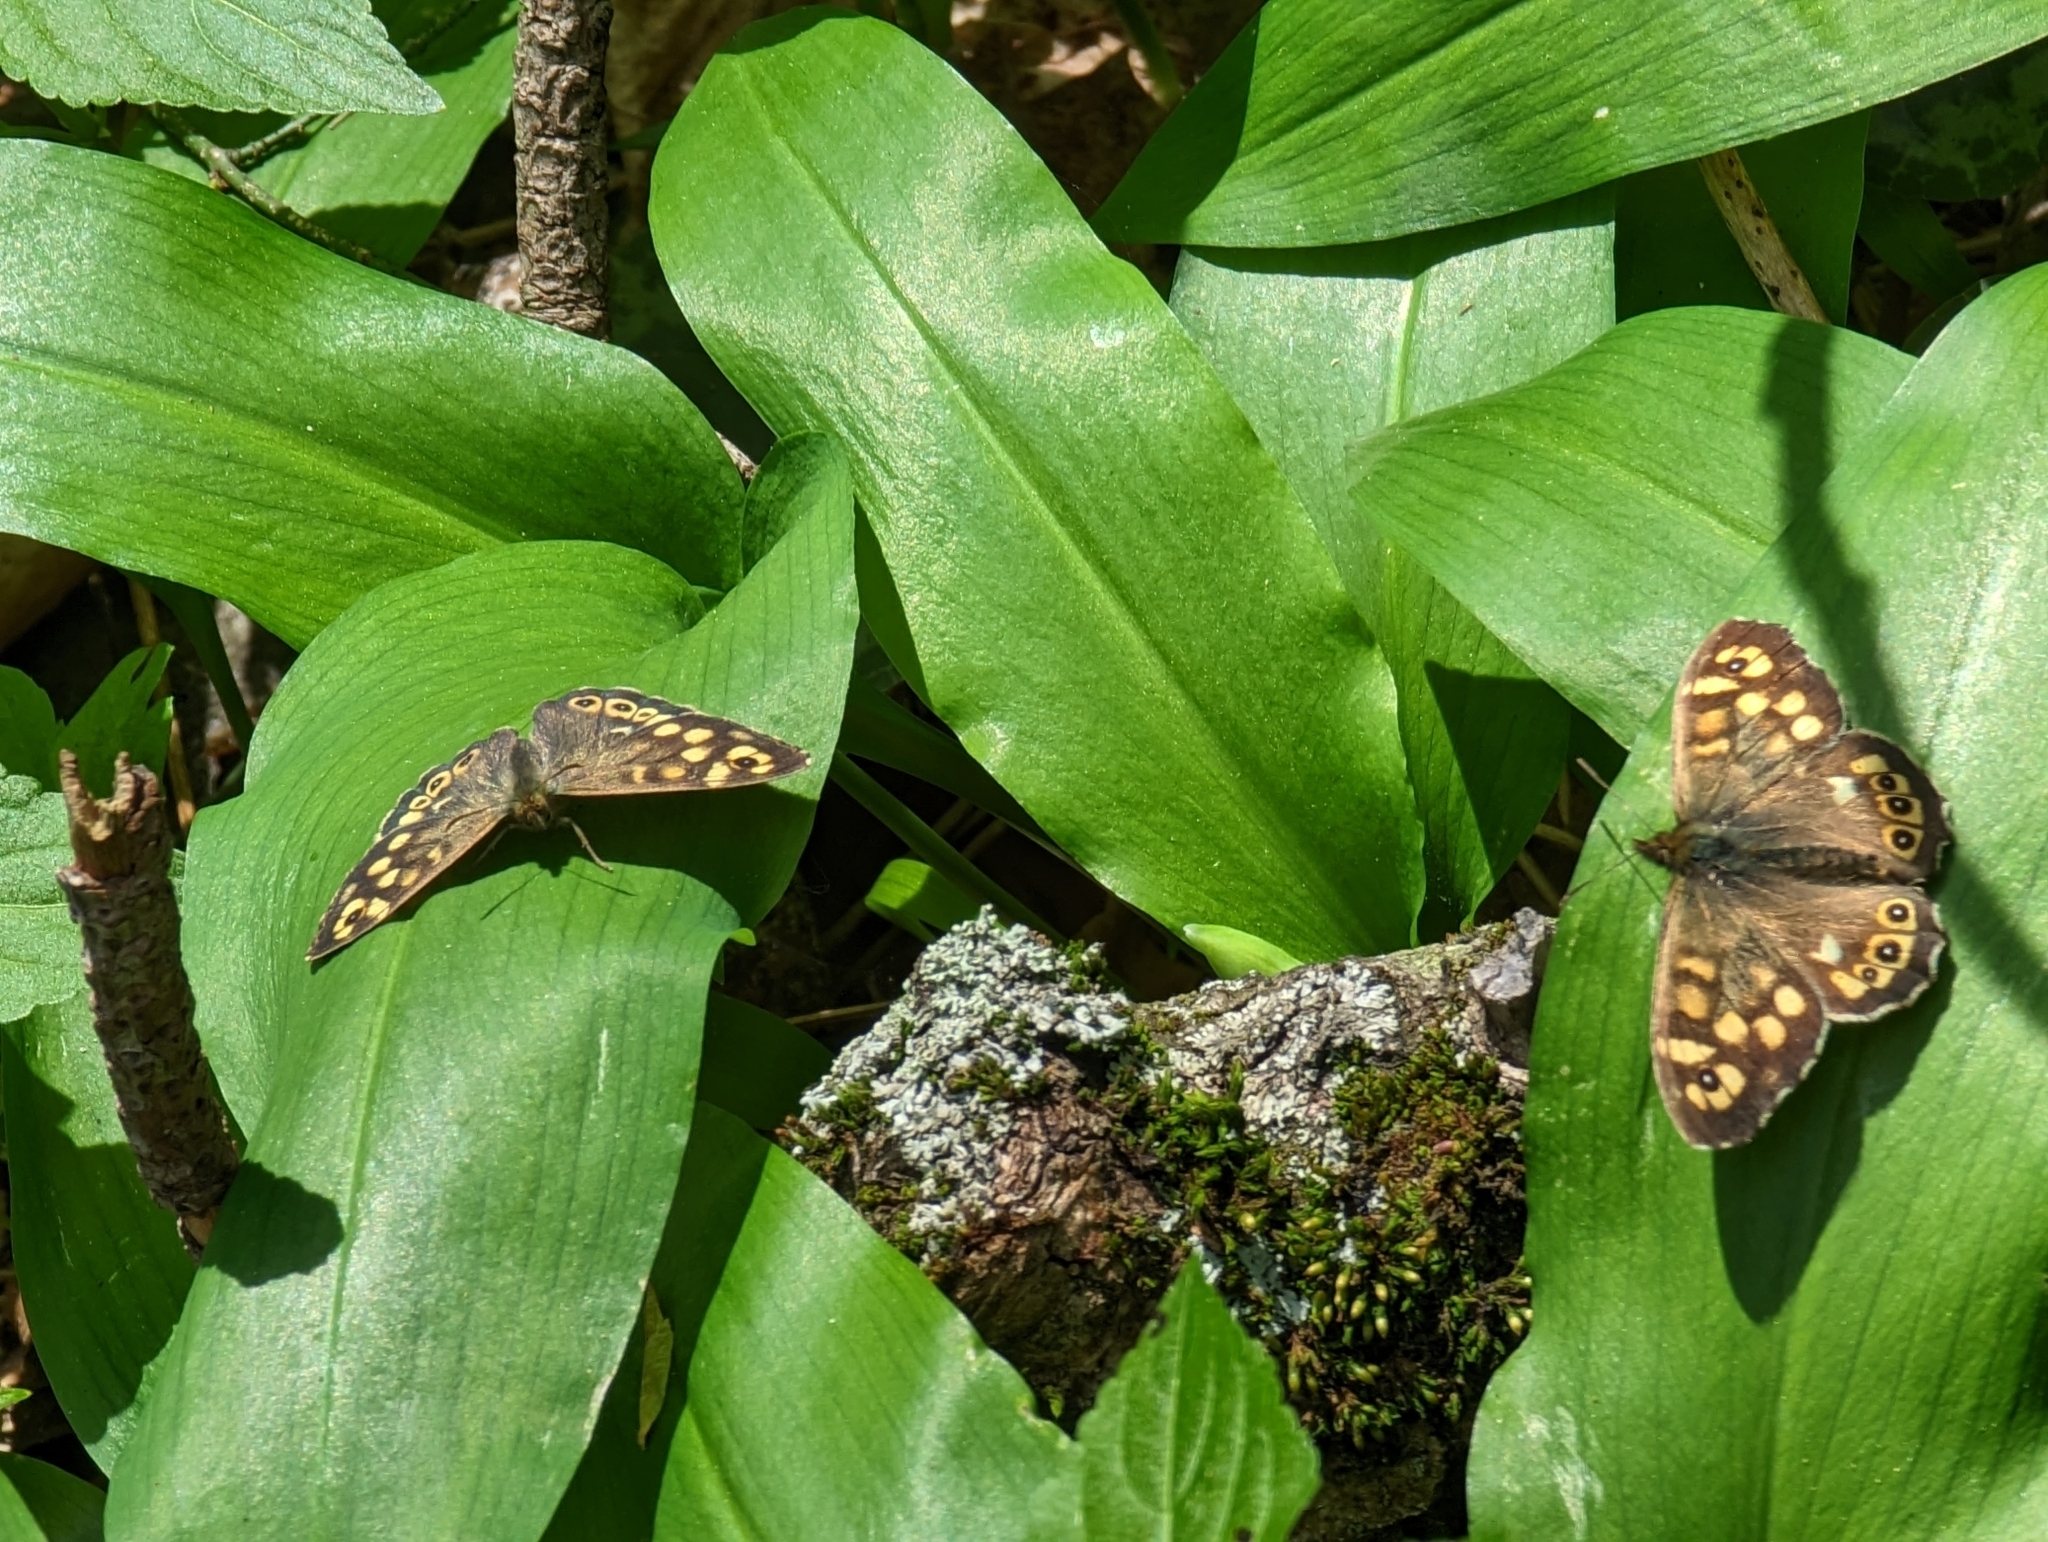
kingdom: Animalia
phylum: Arthropoda
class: Insecta
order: Lepidoptera
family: Nymphalidae
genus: Pararge
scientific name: Pararge aegeria
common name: Speckled wood
